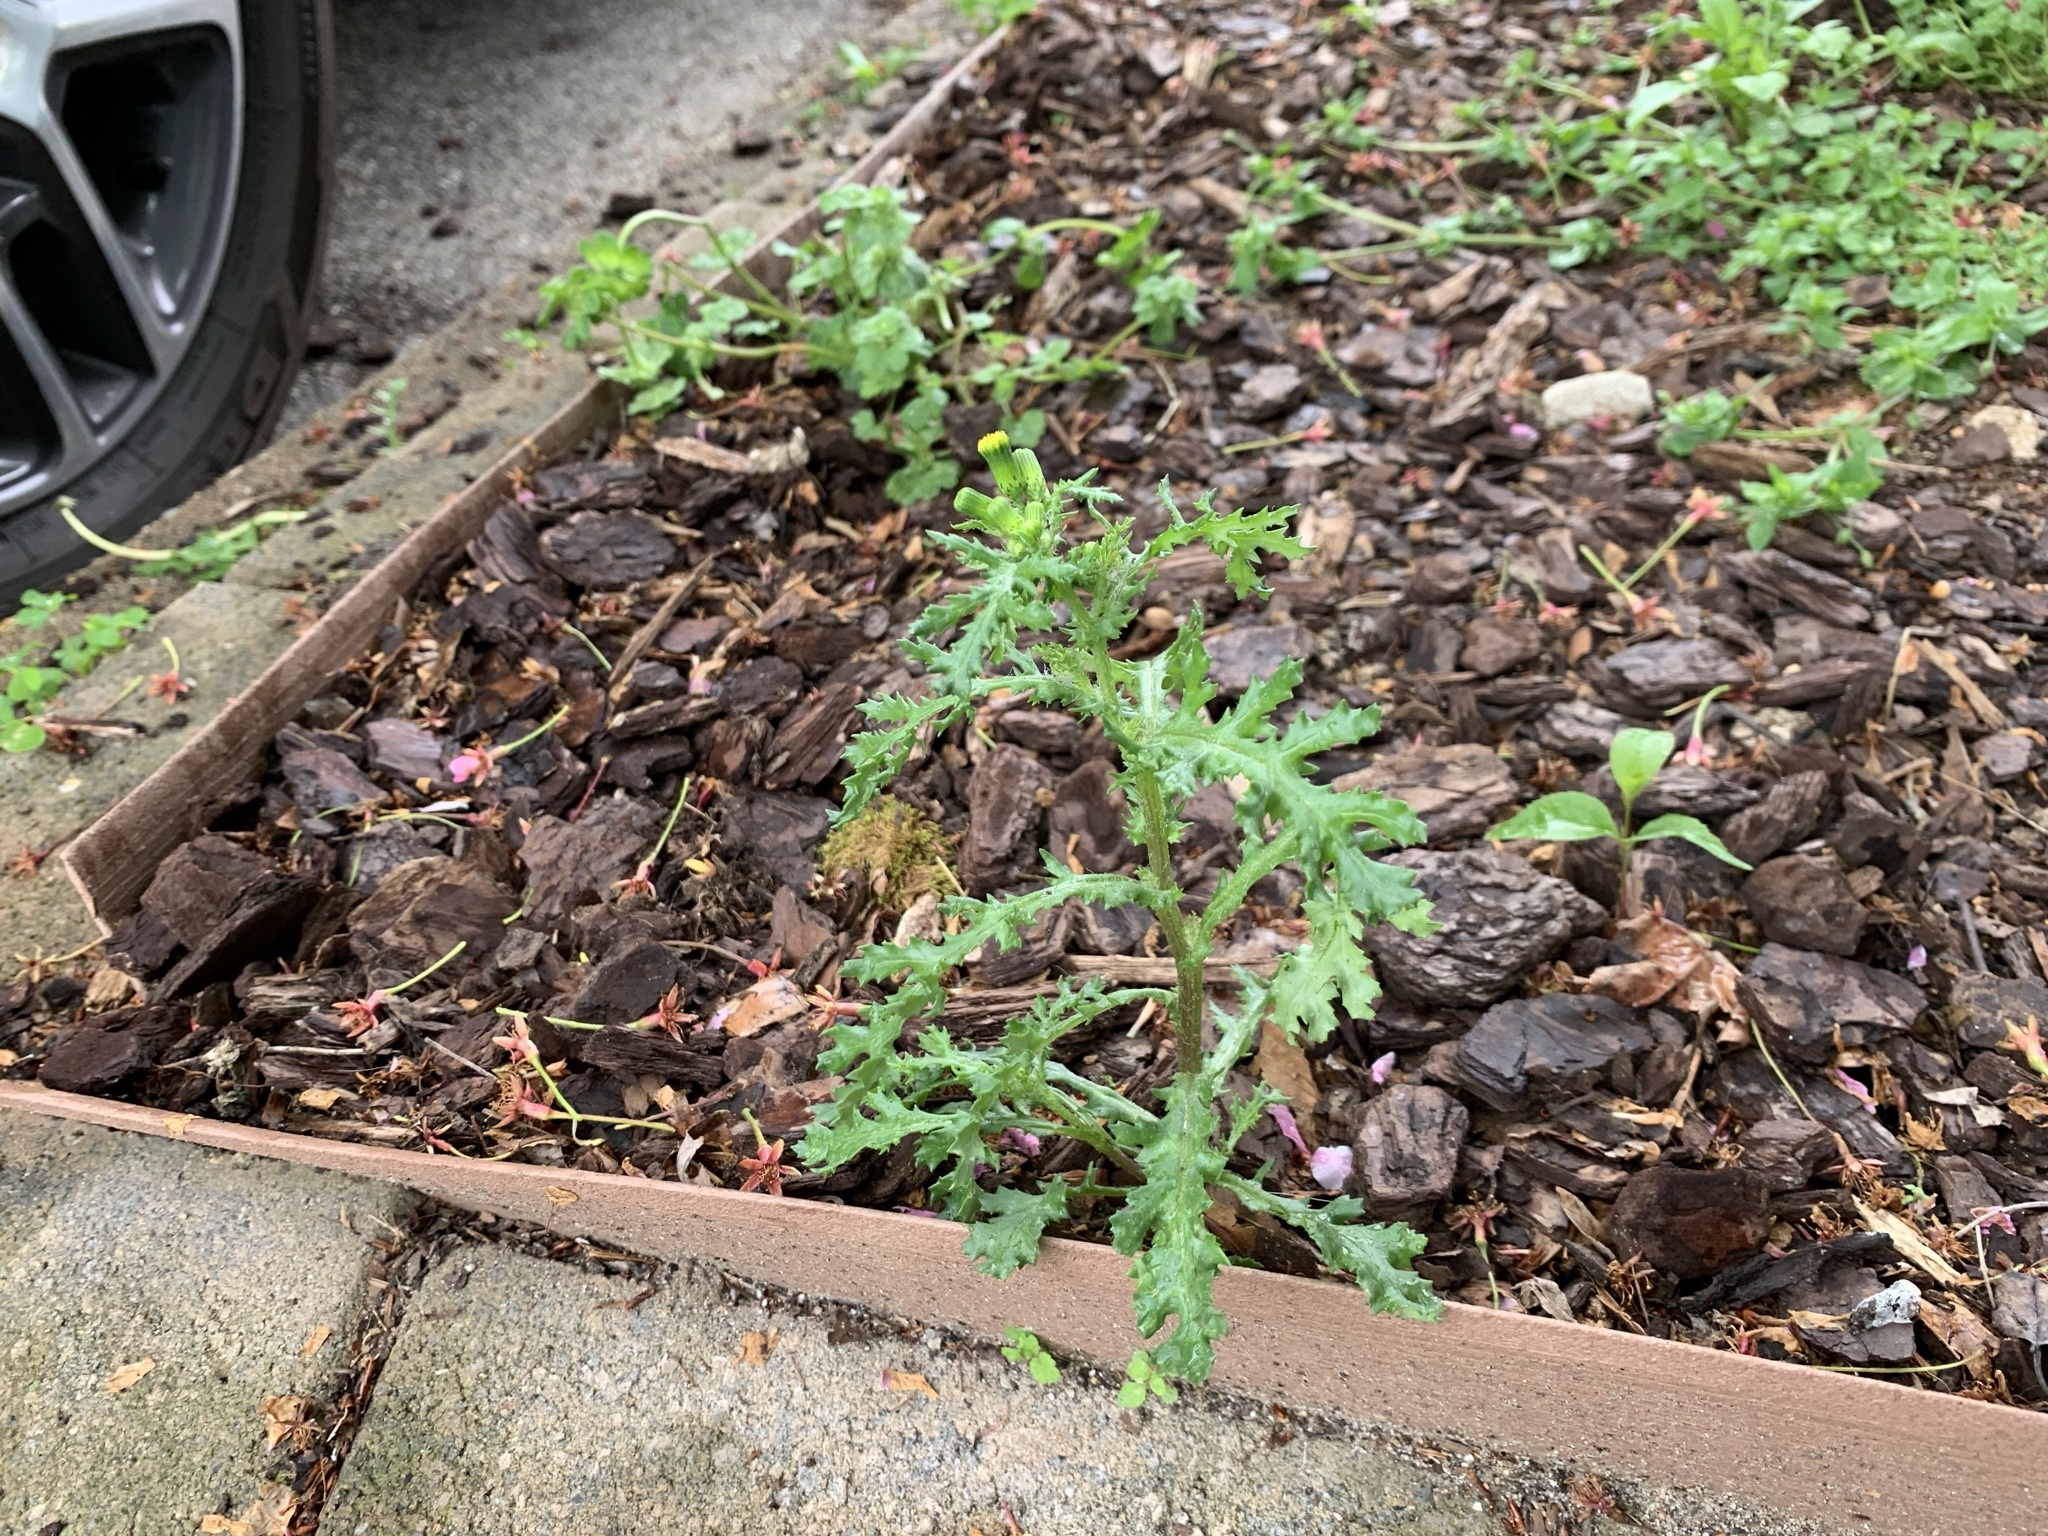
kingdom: Plantae
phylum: Tracheophyta
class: Magnoliopsida
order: Asterales
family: Asteraceae
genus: Senecio
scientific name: Senecio vulgaris
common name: Old-man-in-the-spring
